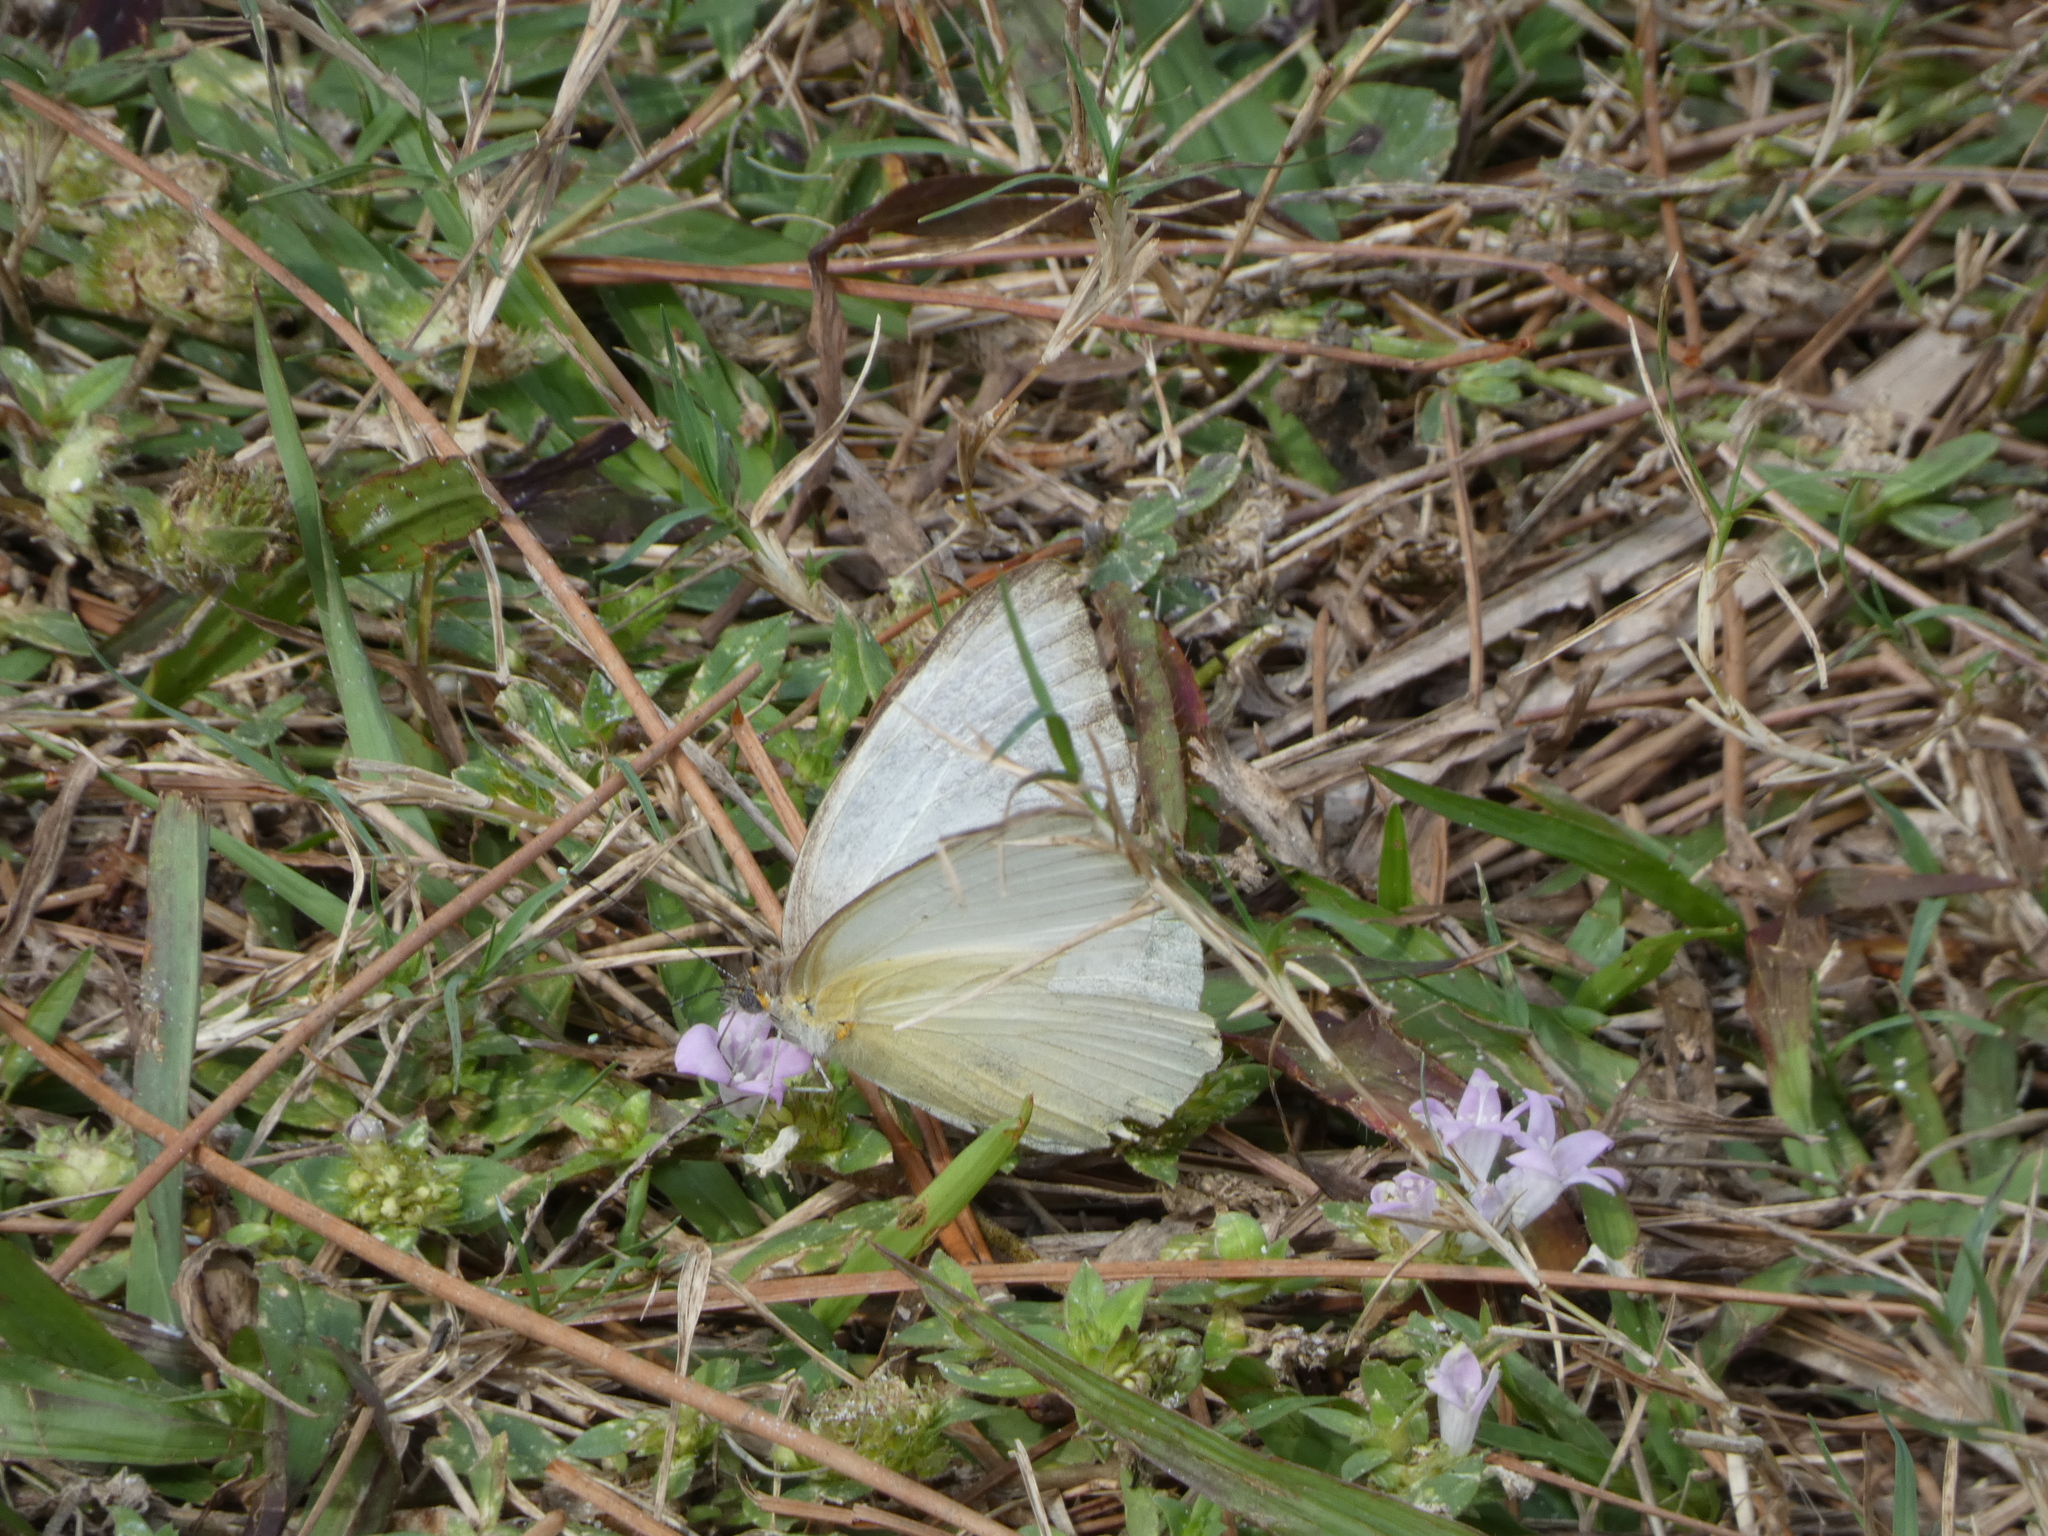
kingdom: Animalia
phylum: Arthropoda
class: Insecta
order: Lepidoptera
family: Pieridae
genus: Ascia
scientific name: Ascia monuste
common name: Great southern white
